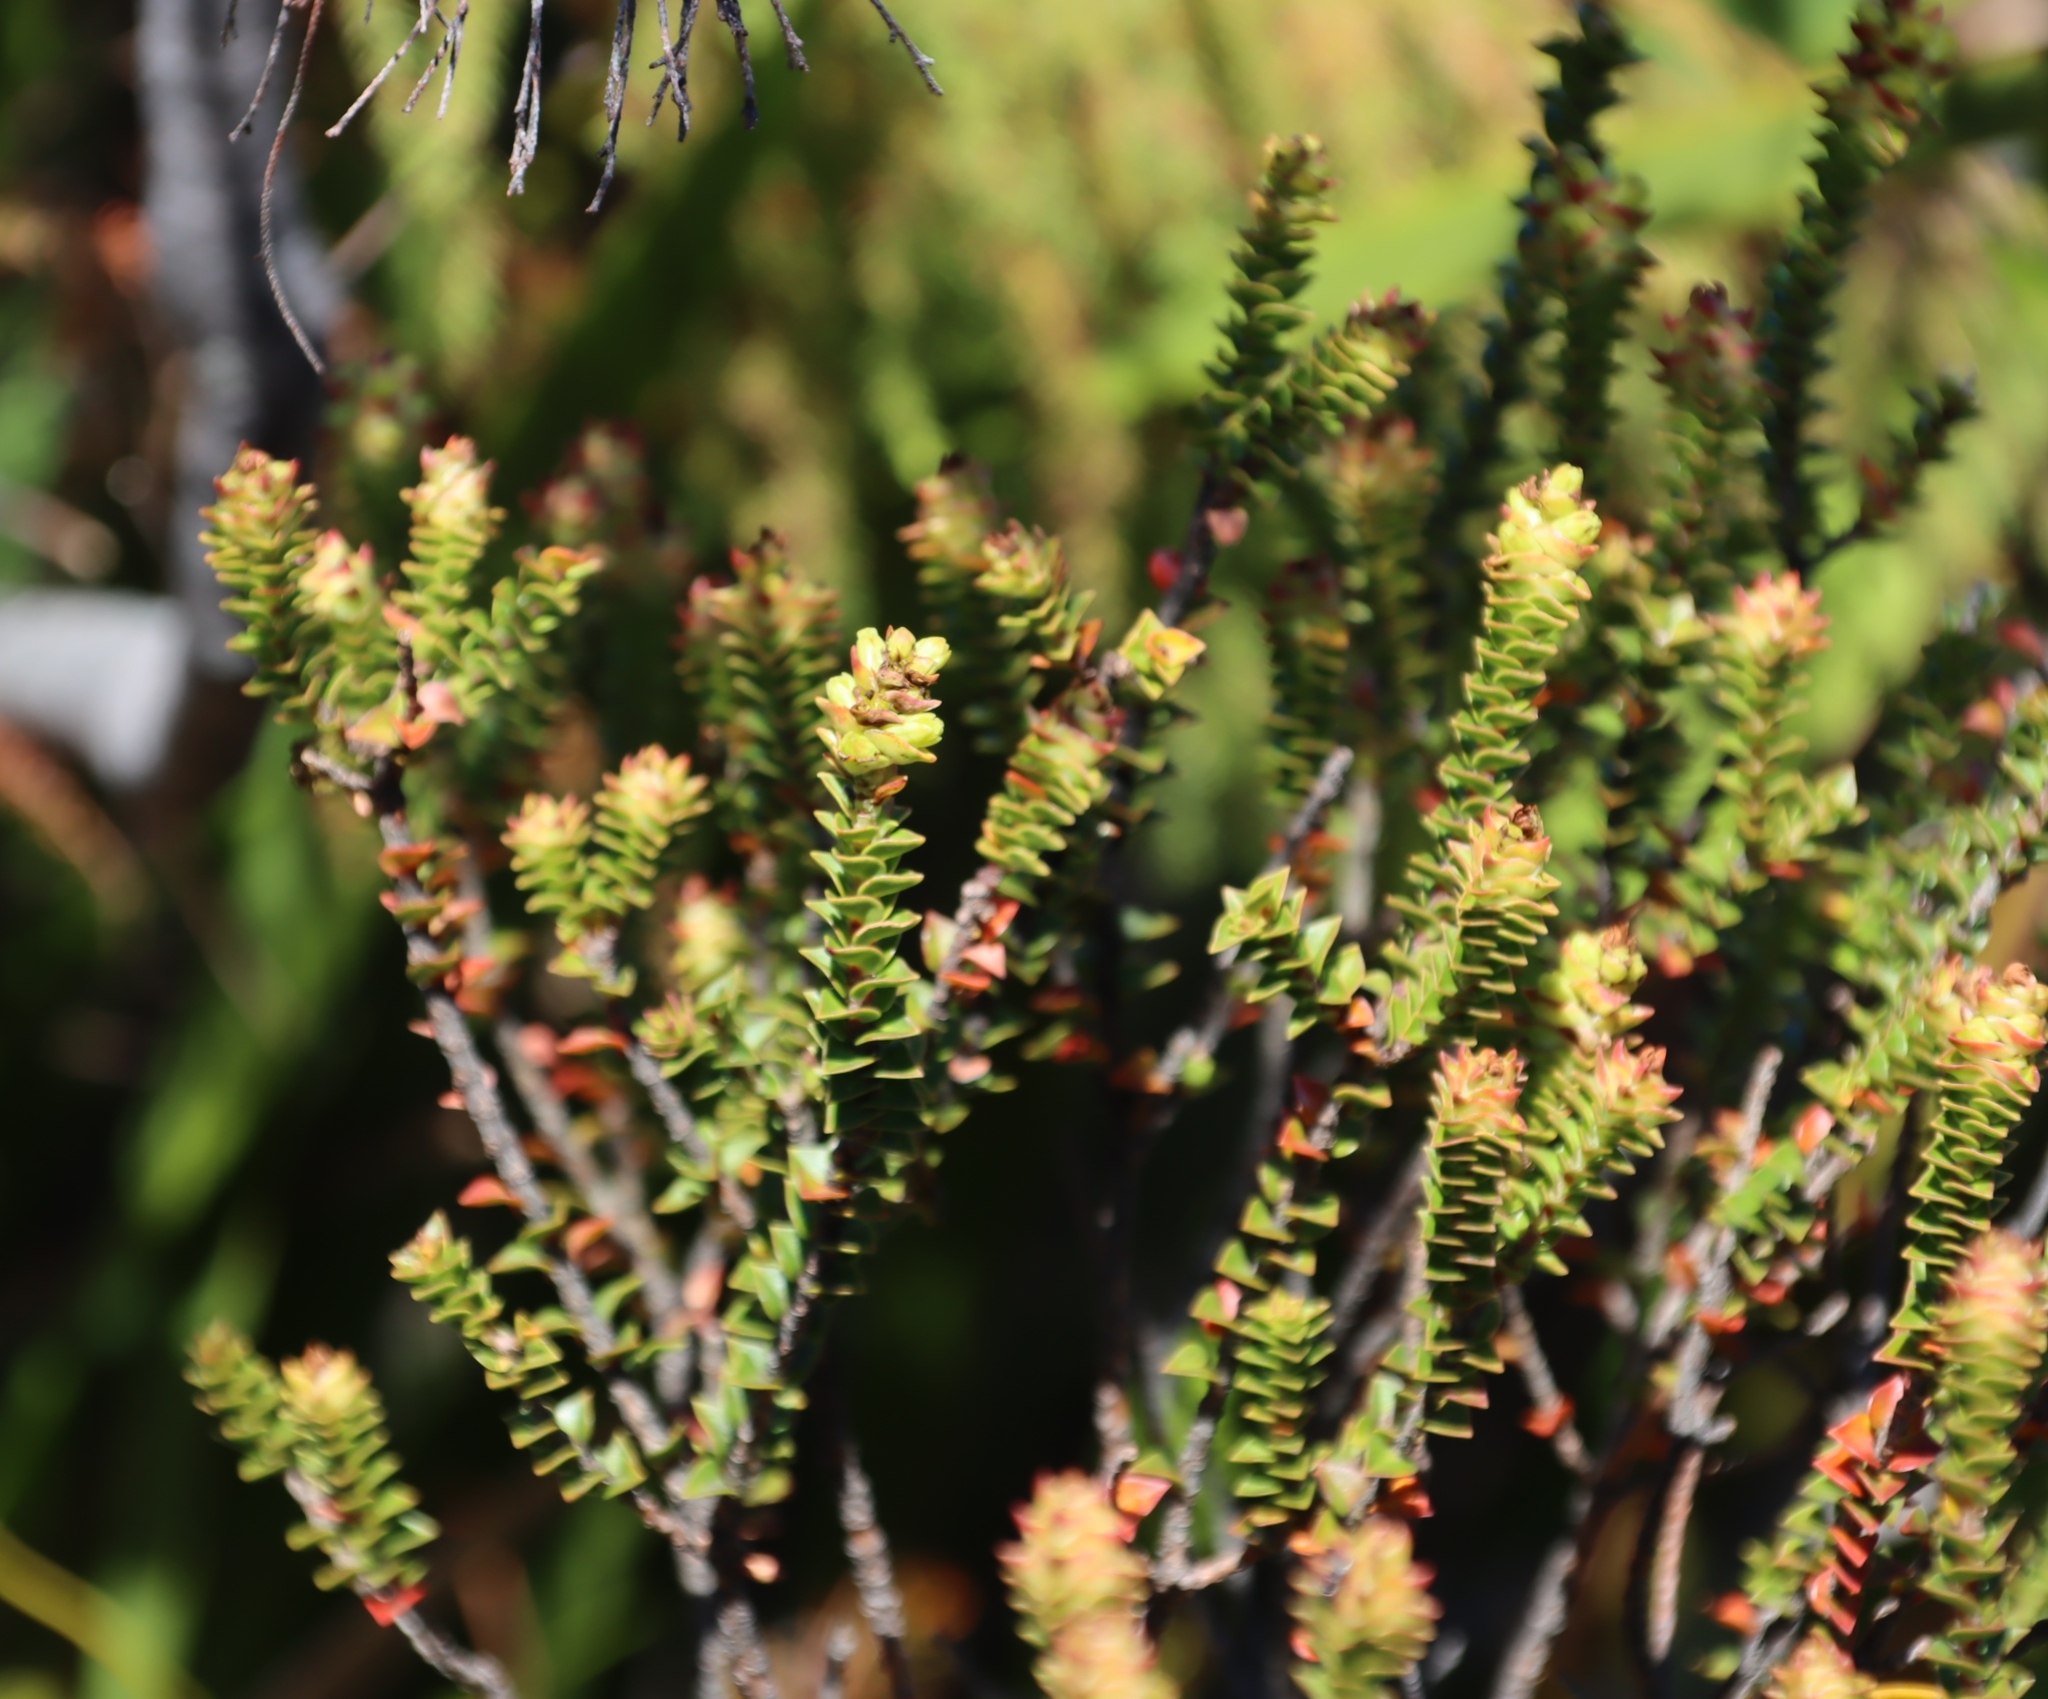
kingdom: Plantae
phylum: Tracheophyta
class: Magnoliopsida
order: Myrtales
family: Penaeaceae
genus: Penaea
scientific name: Penaea mucronata
